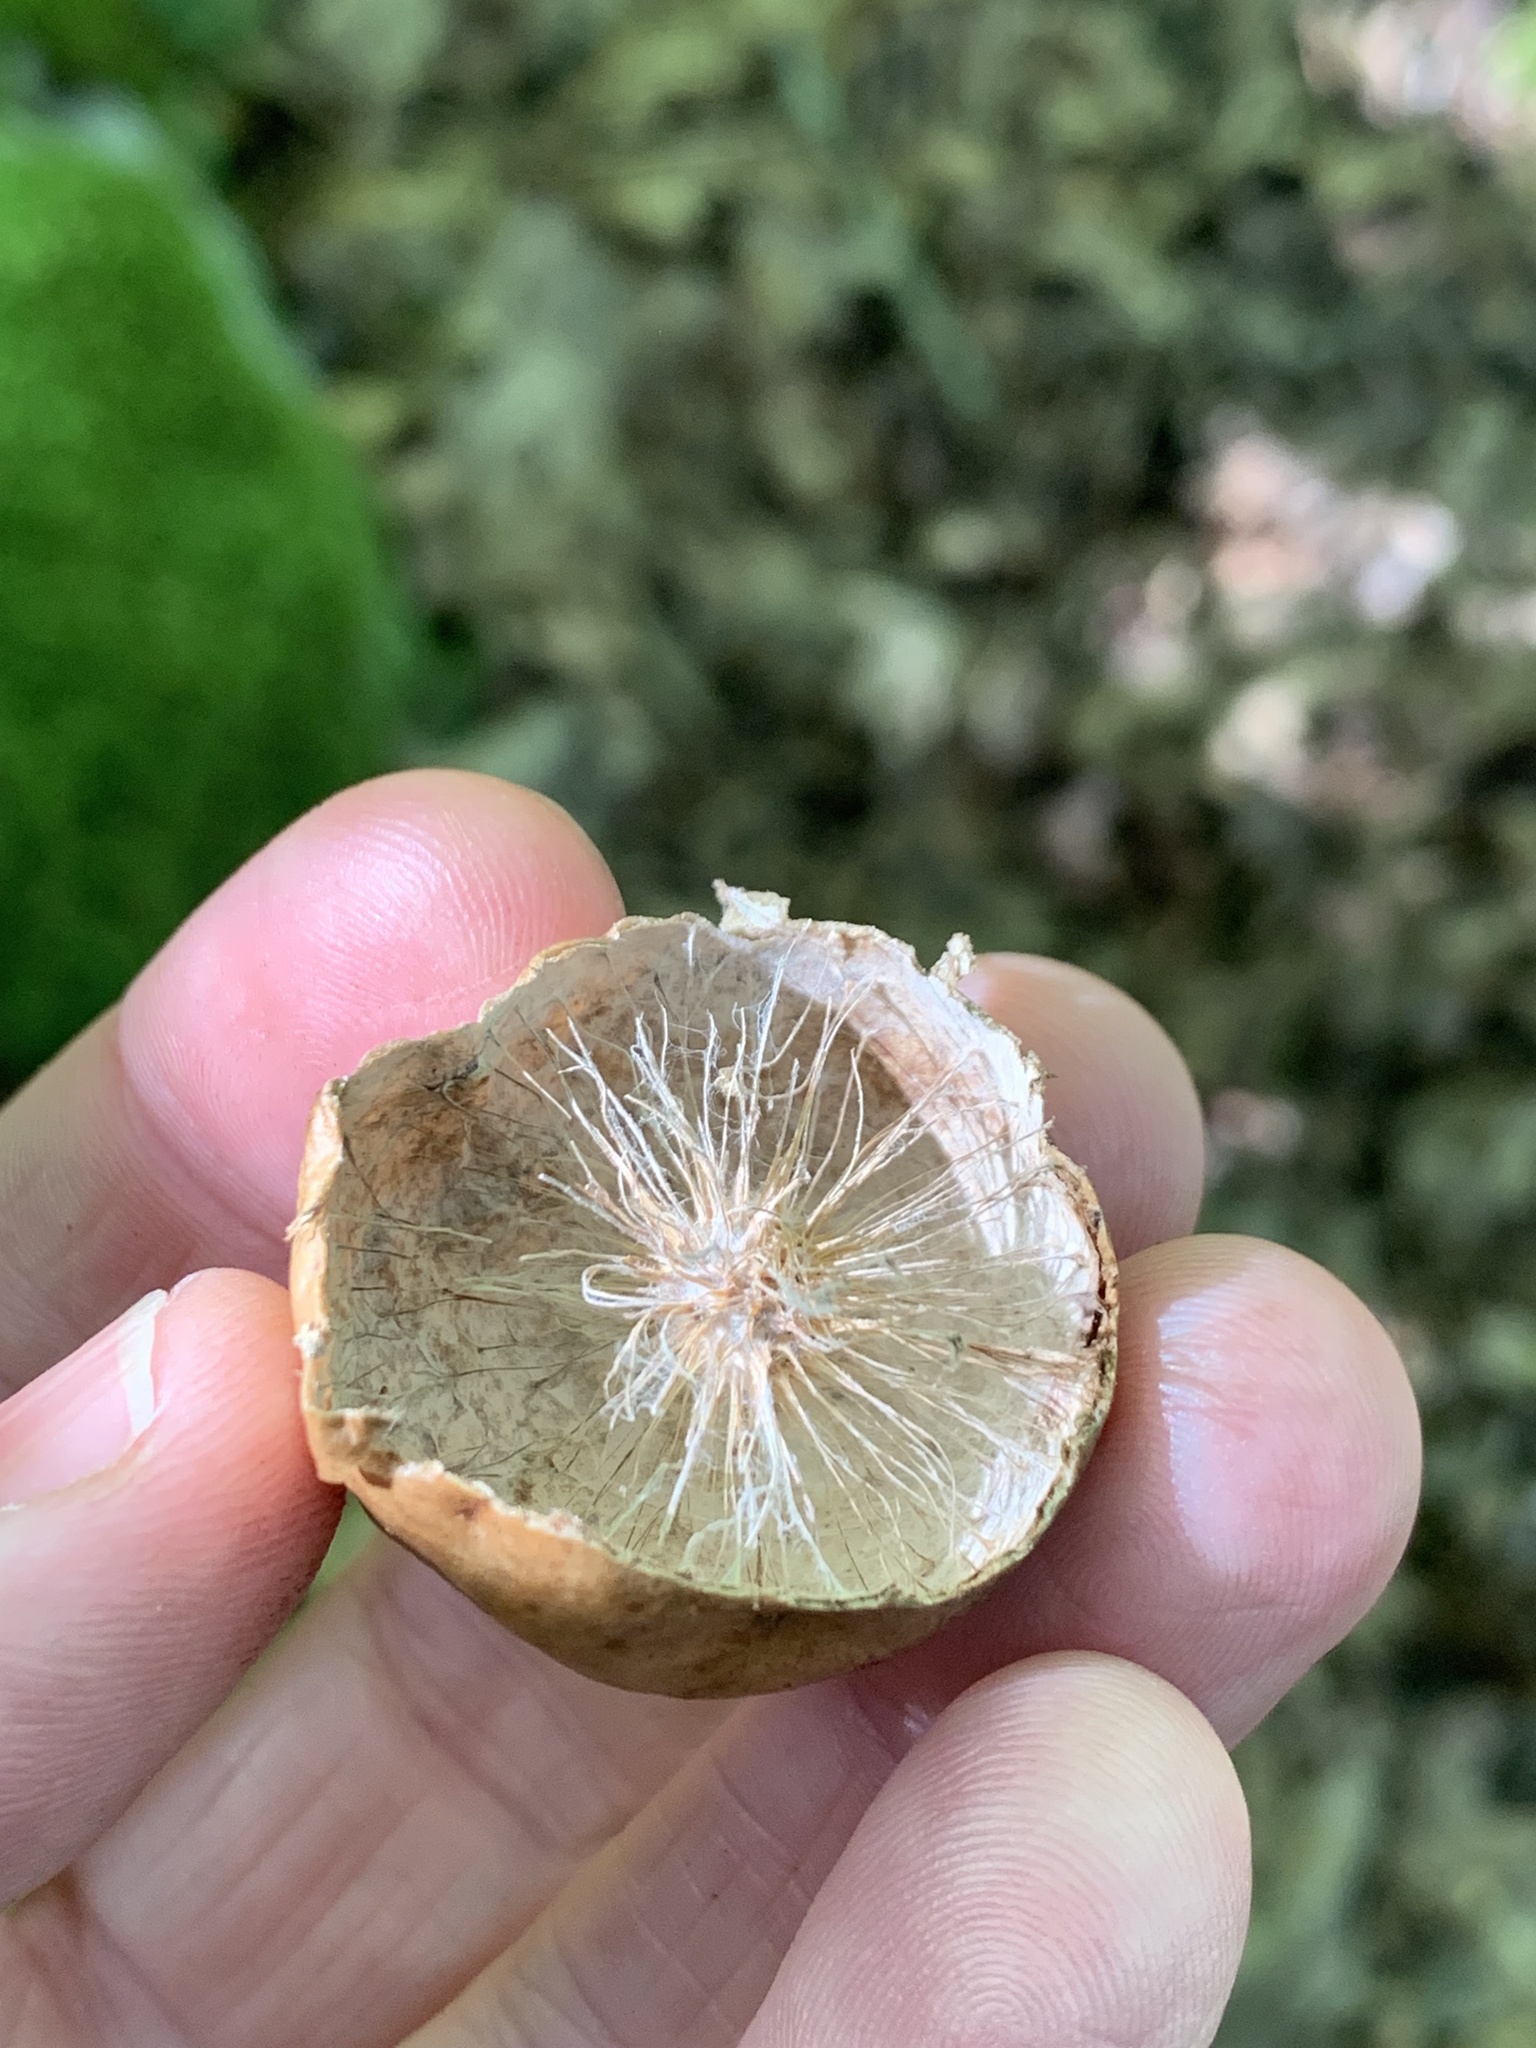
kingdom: Animalia
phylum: Arthropoda
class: Insecta
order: Hymenoptera
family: Cynipidae
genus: Amphibolips
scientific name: Amphibolips
